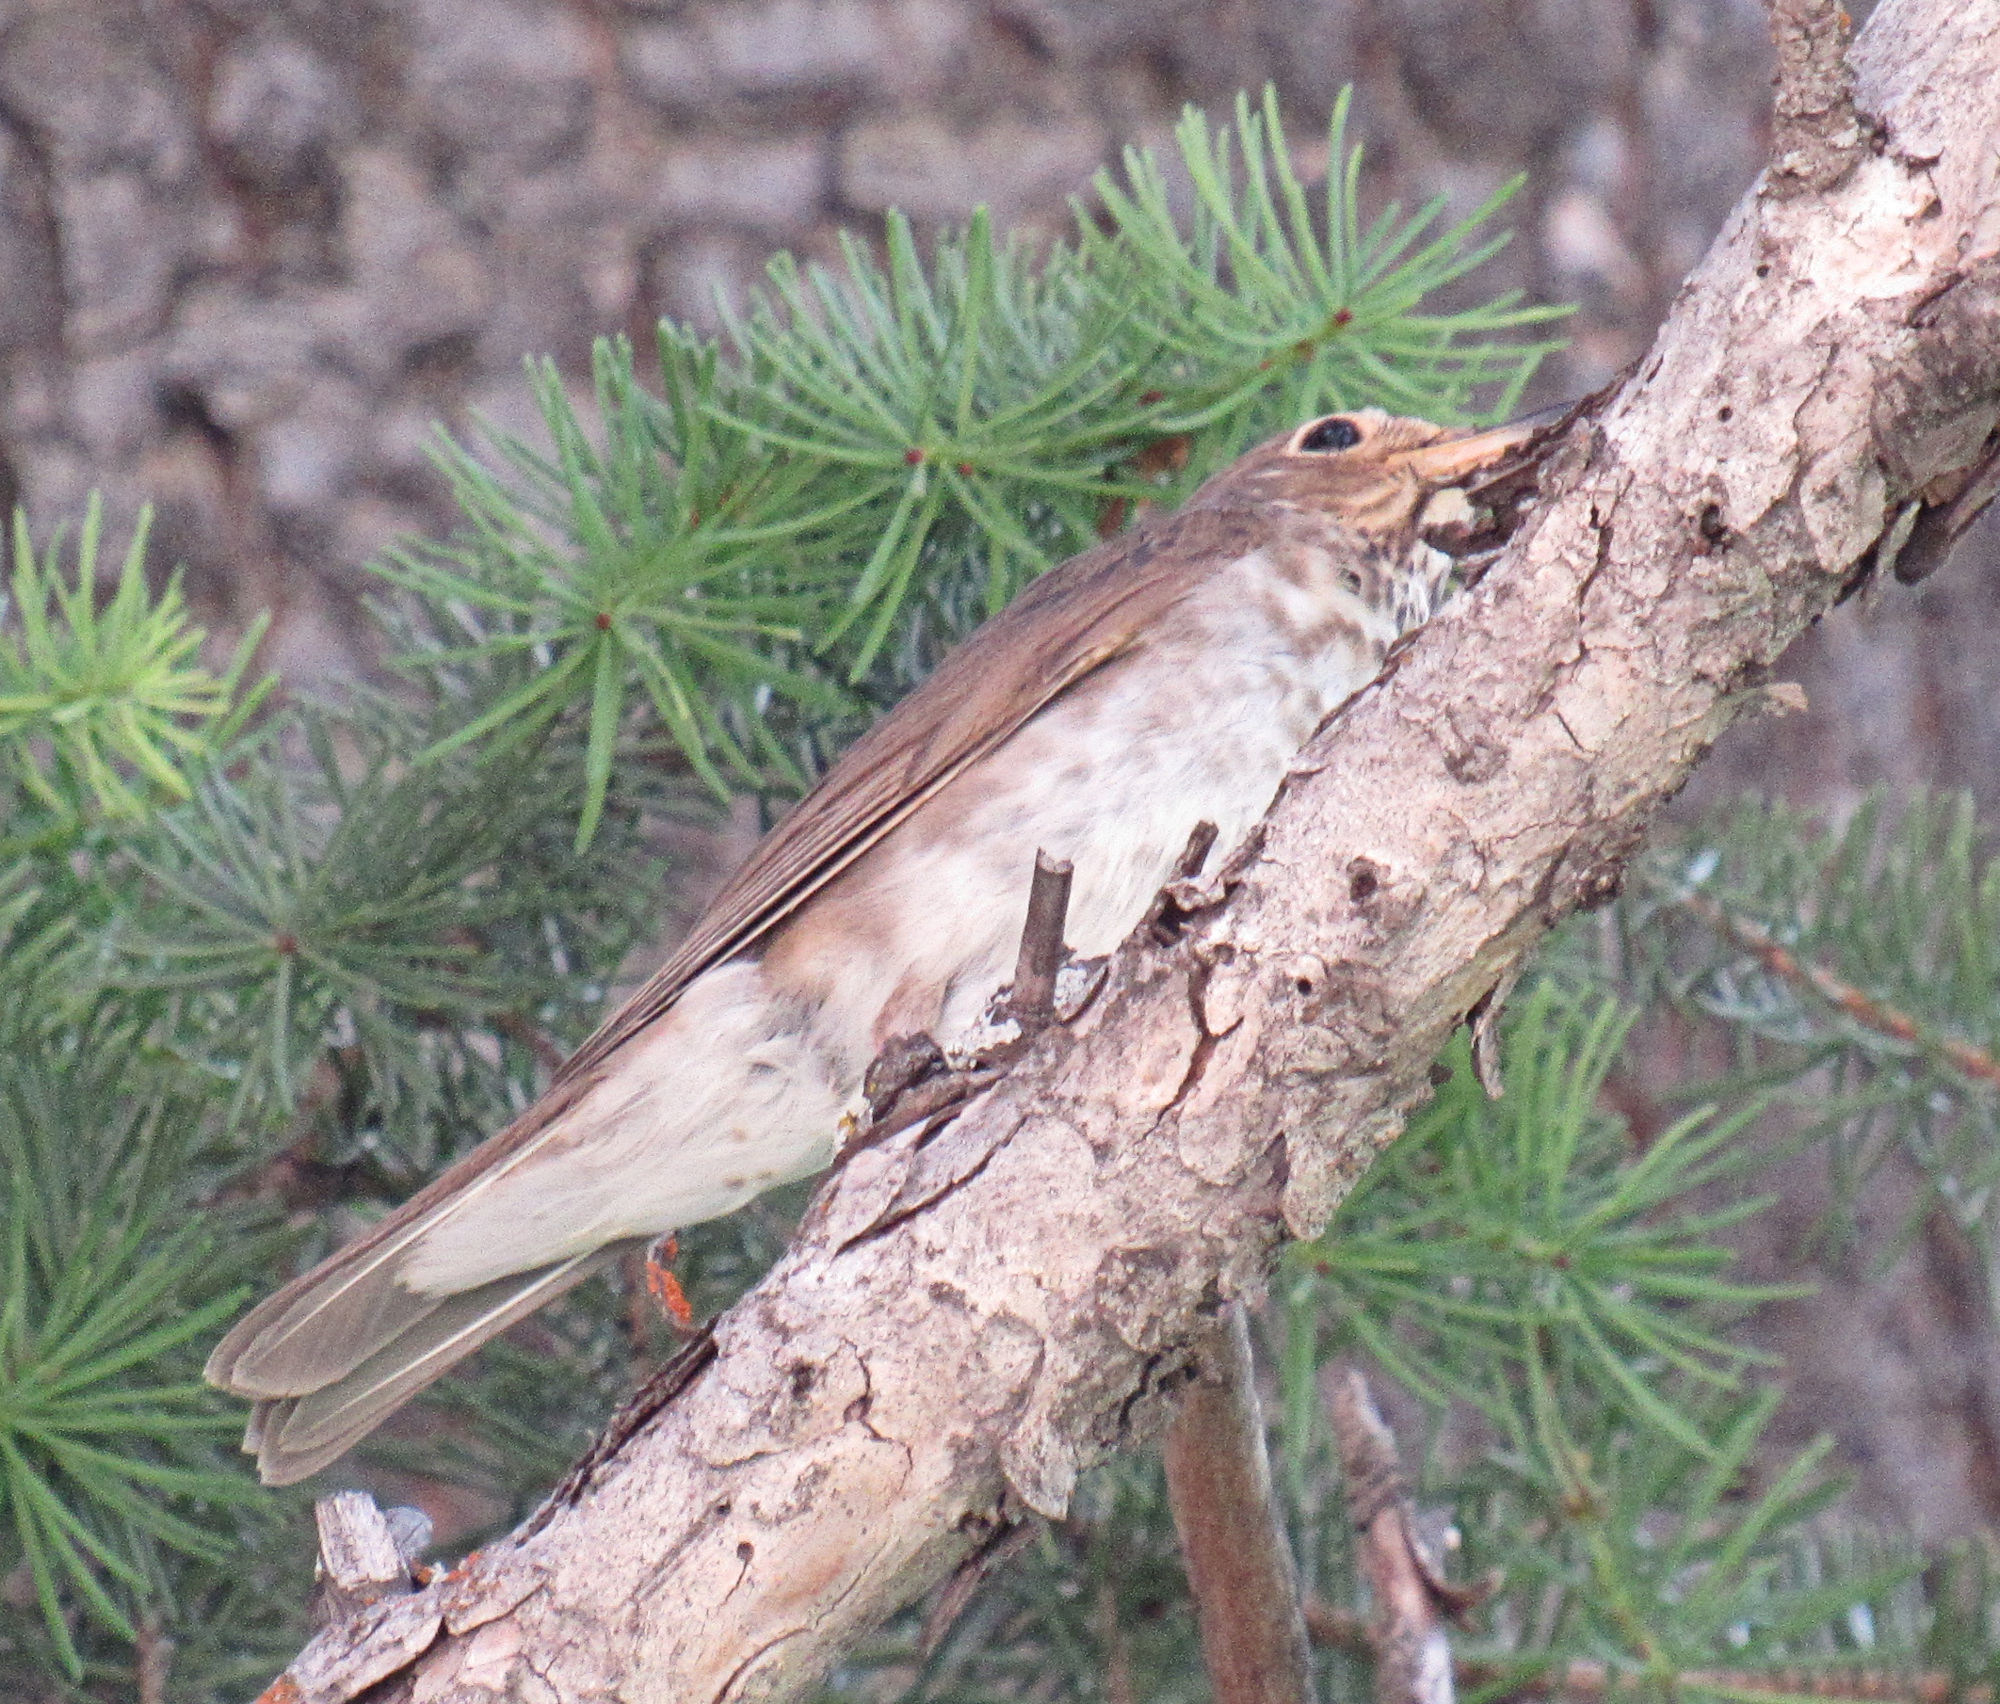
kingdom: Animalia
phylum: Chordata
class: Aves
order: Passeriformes
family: Turdidae
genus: Catharus
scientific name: Catharus ustulatus
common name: Swainson's thrush
